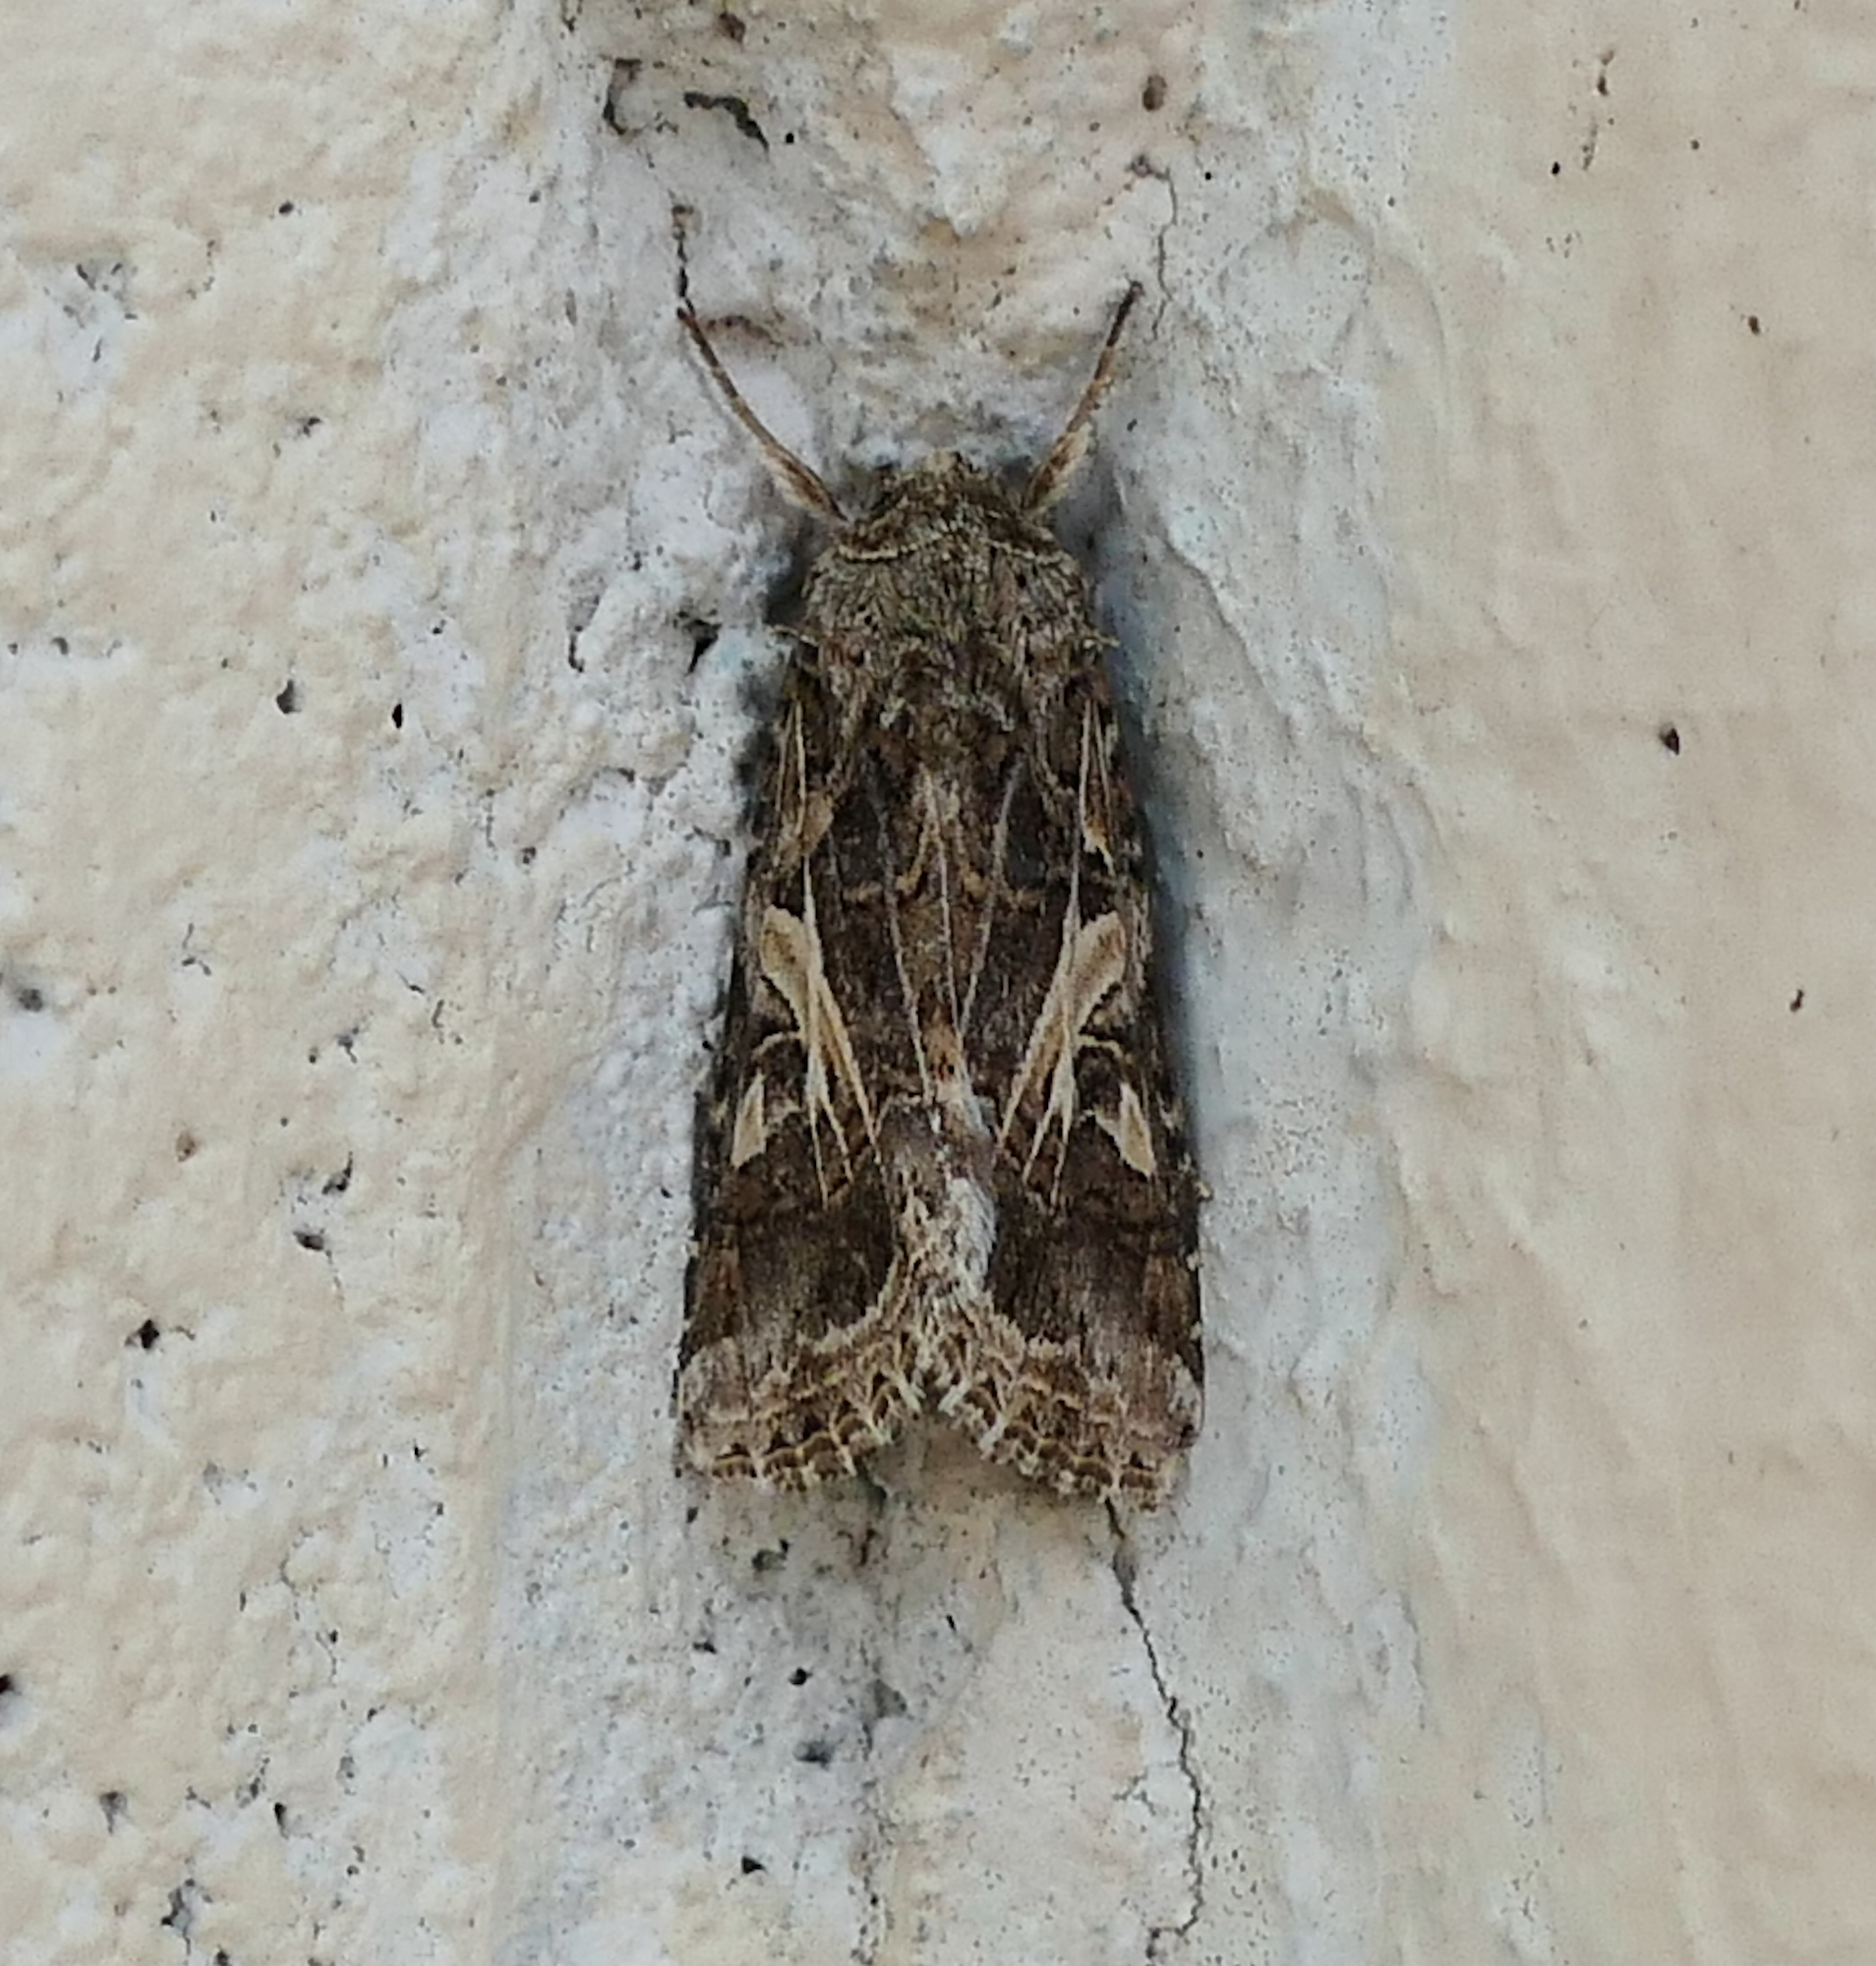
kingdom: Animalia
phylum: Arthropoda
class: Insecta
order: Lepidoptera
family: Noctuidae
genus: Spodoptera
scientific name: Spodoptera ornithogalli
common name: Yellow-striped armyworm
